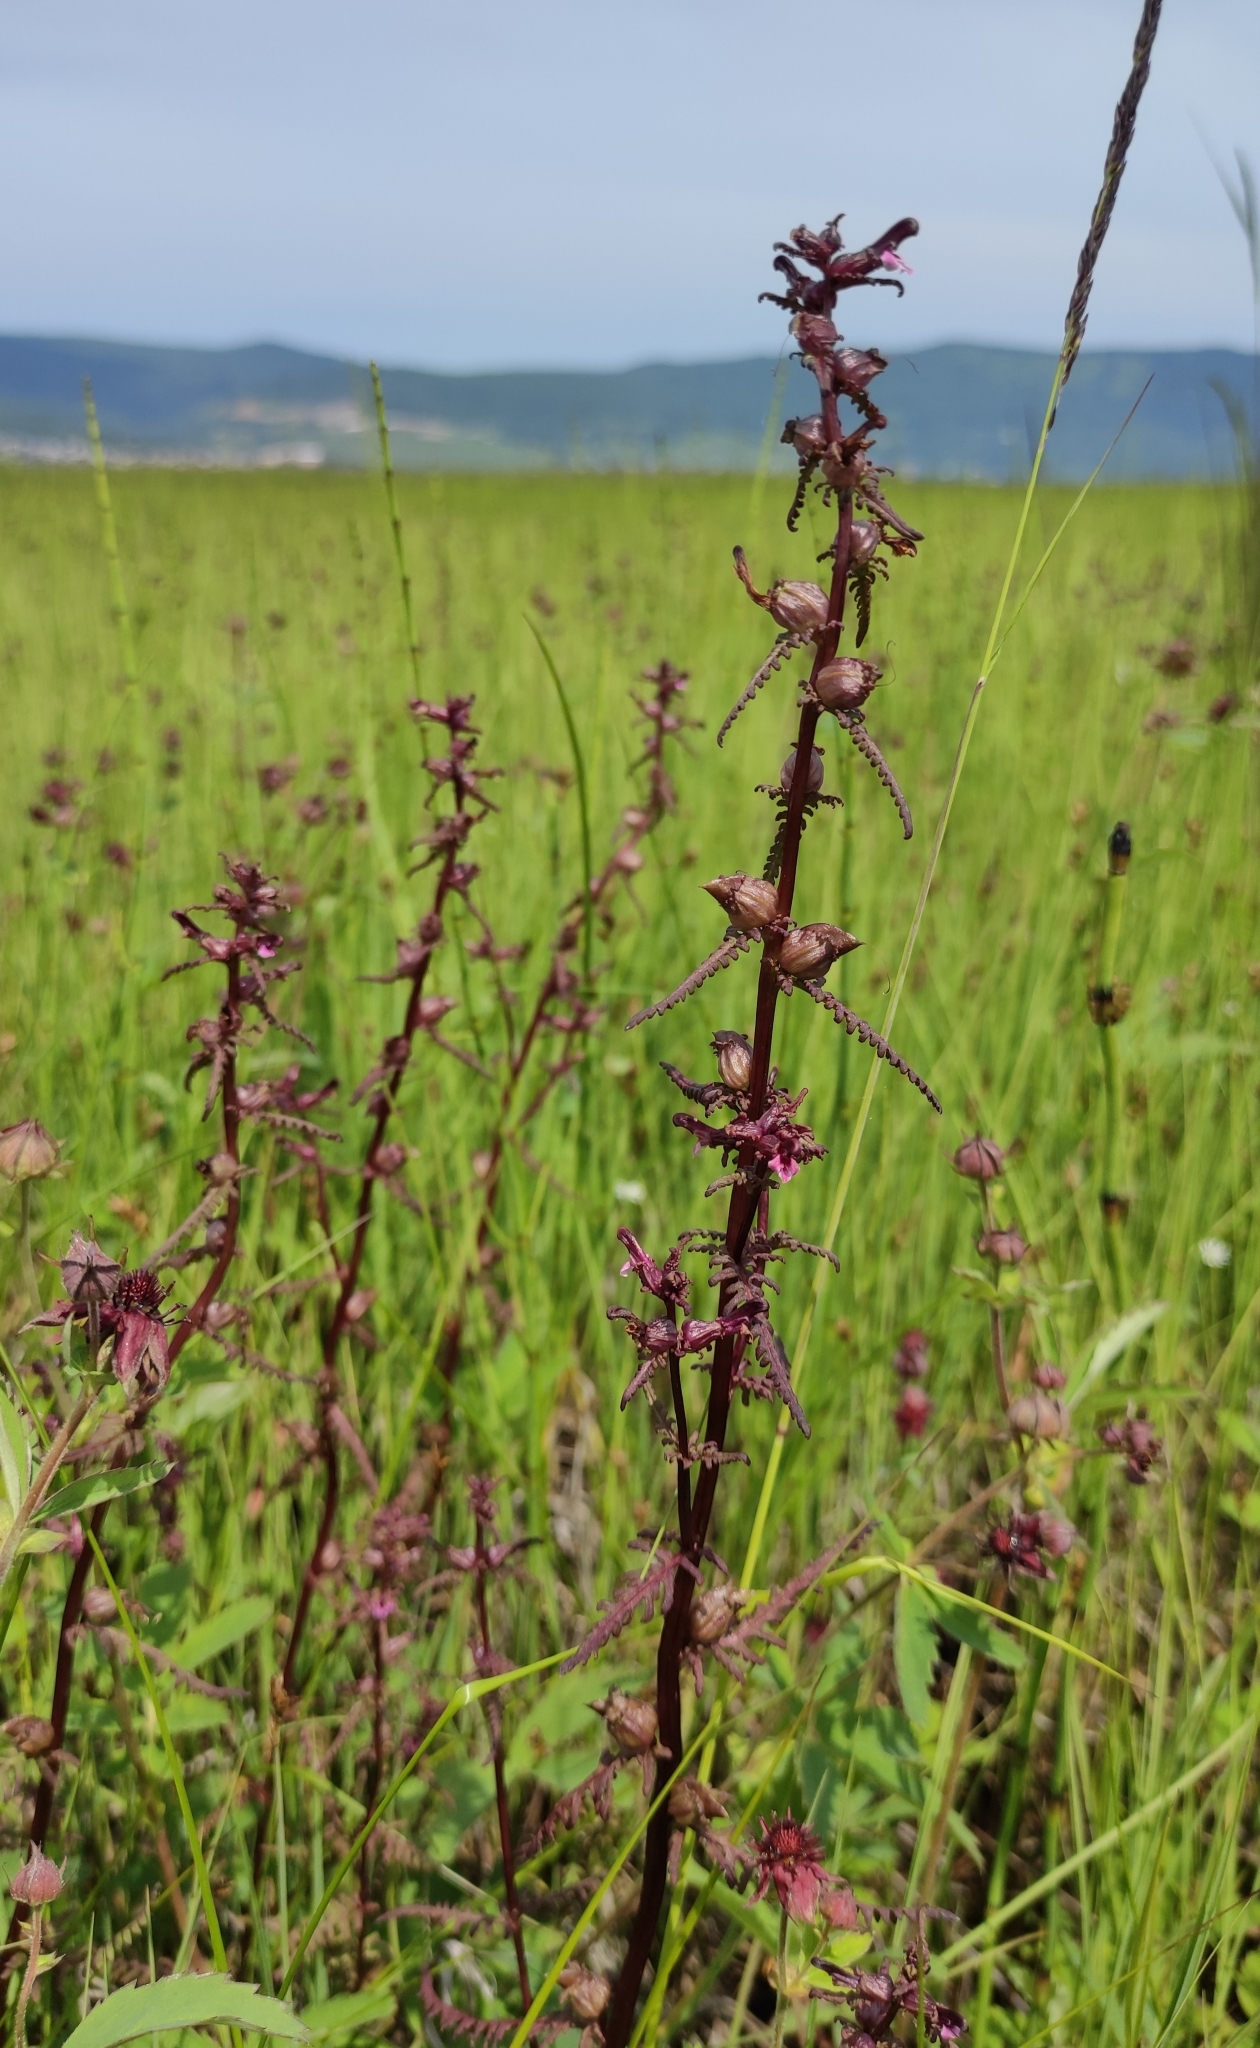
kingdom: Plantae
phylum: Tracheophyta
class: Magnoliopsida
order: Lamiales
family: Orobanchaceae
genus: Pedicularis
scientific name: Pedicularis wlassowiana
